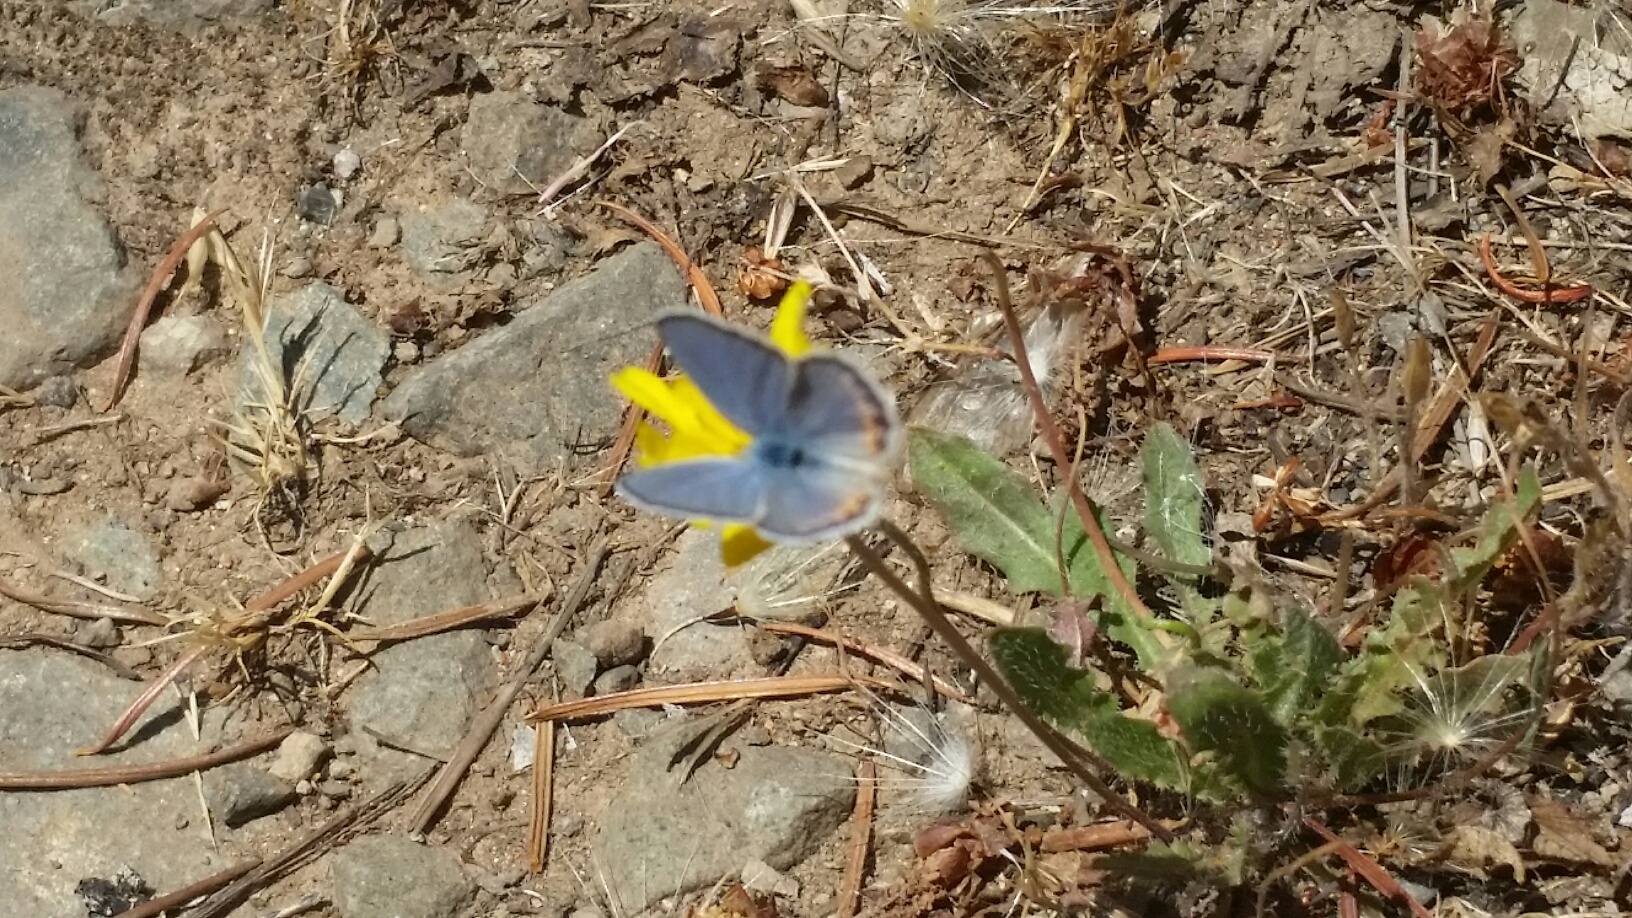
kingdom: Animalia
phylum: Arthropoda
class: Insecta
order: Lepidoptera
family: Lycaenidae
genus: Icaricia
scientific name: Icaricia acmon
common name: Acmon blue
